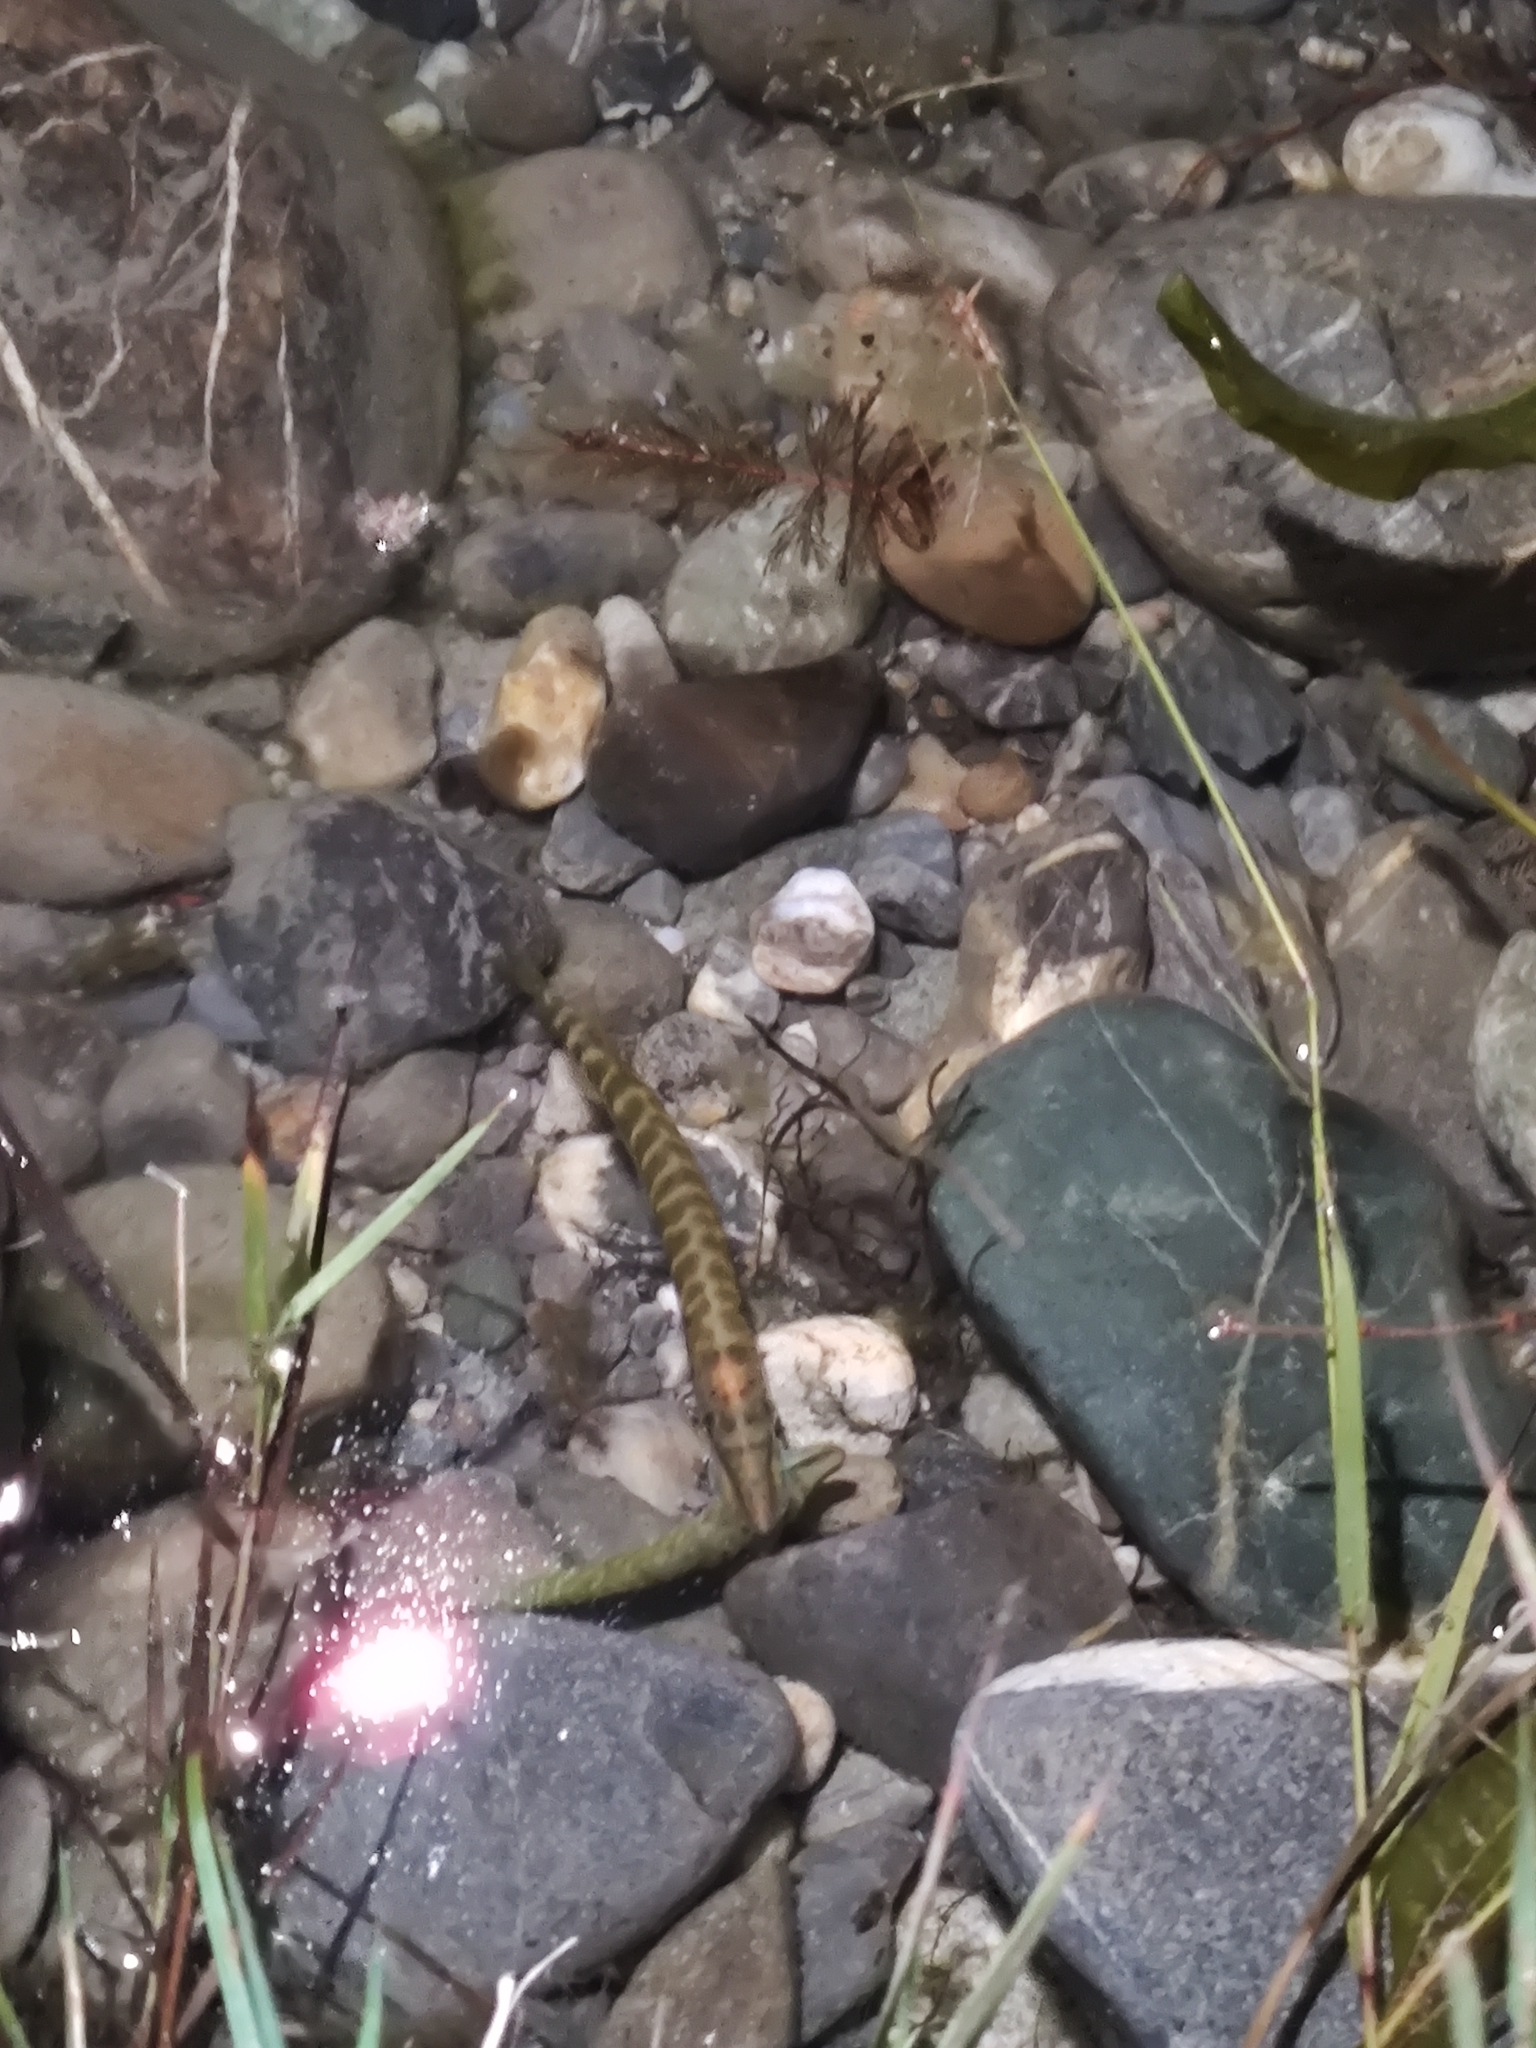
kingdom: Animalia
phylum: Chordata
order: Esociformes
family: Esocidae
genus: Esox
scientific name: Esox lucius
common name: Northern pike
